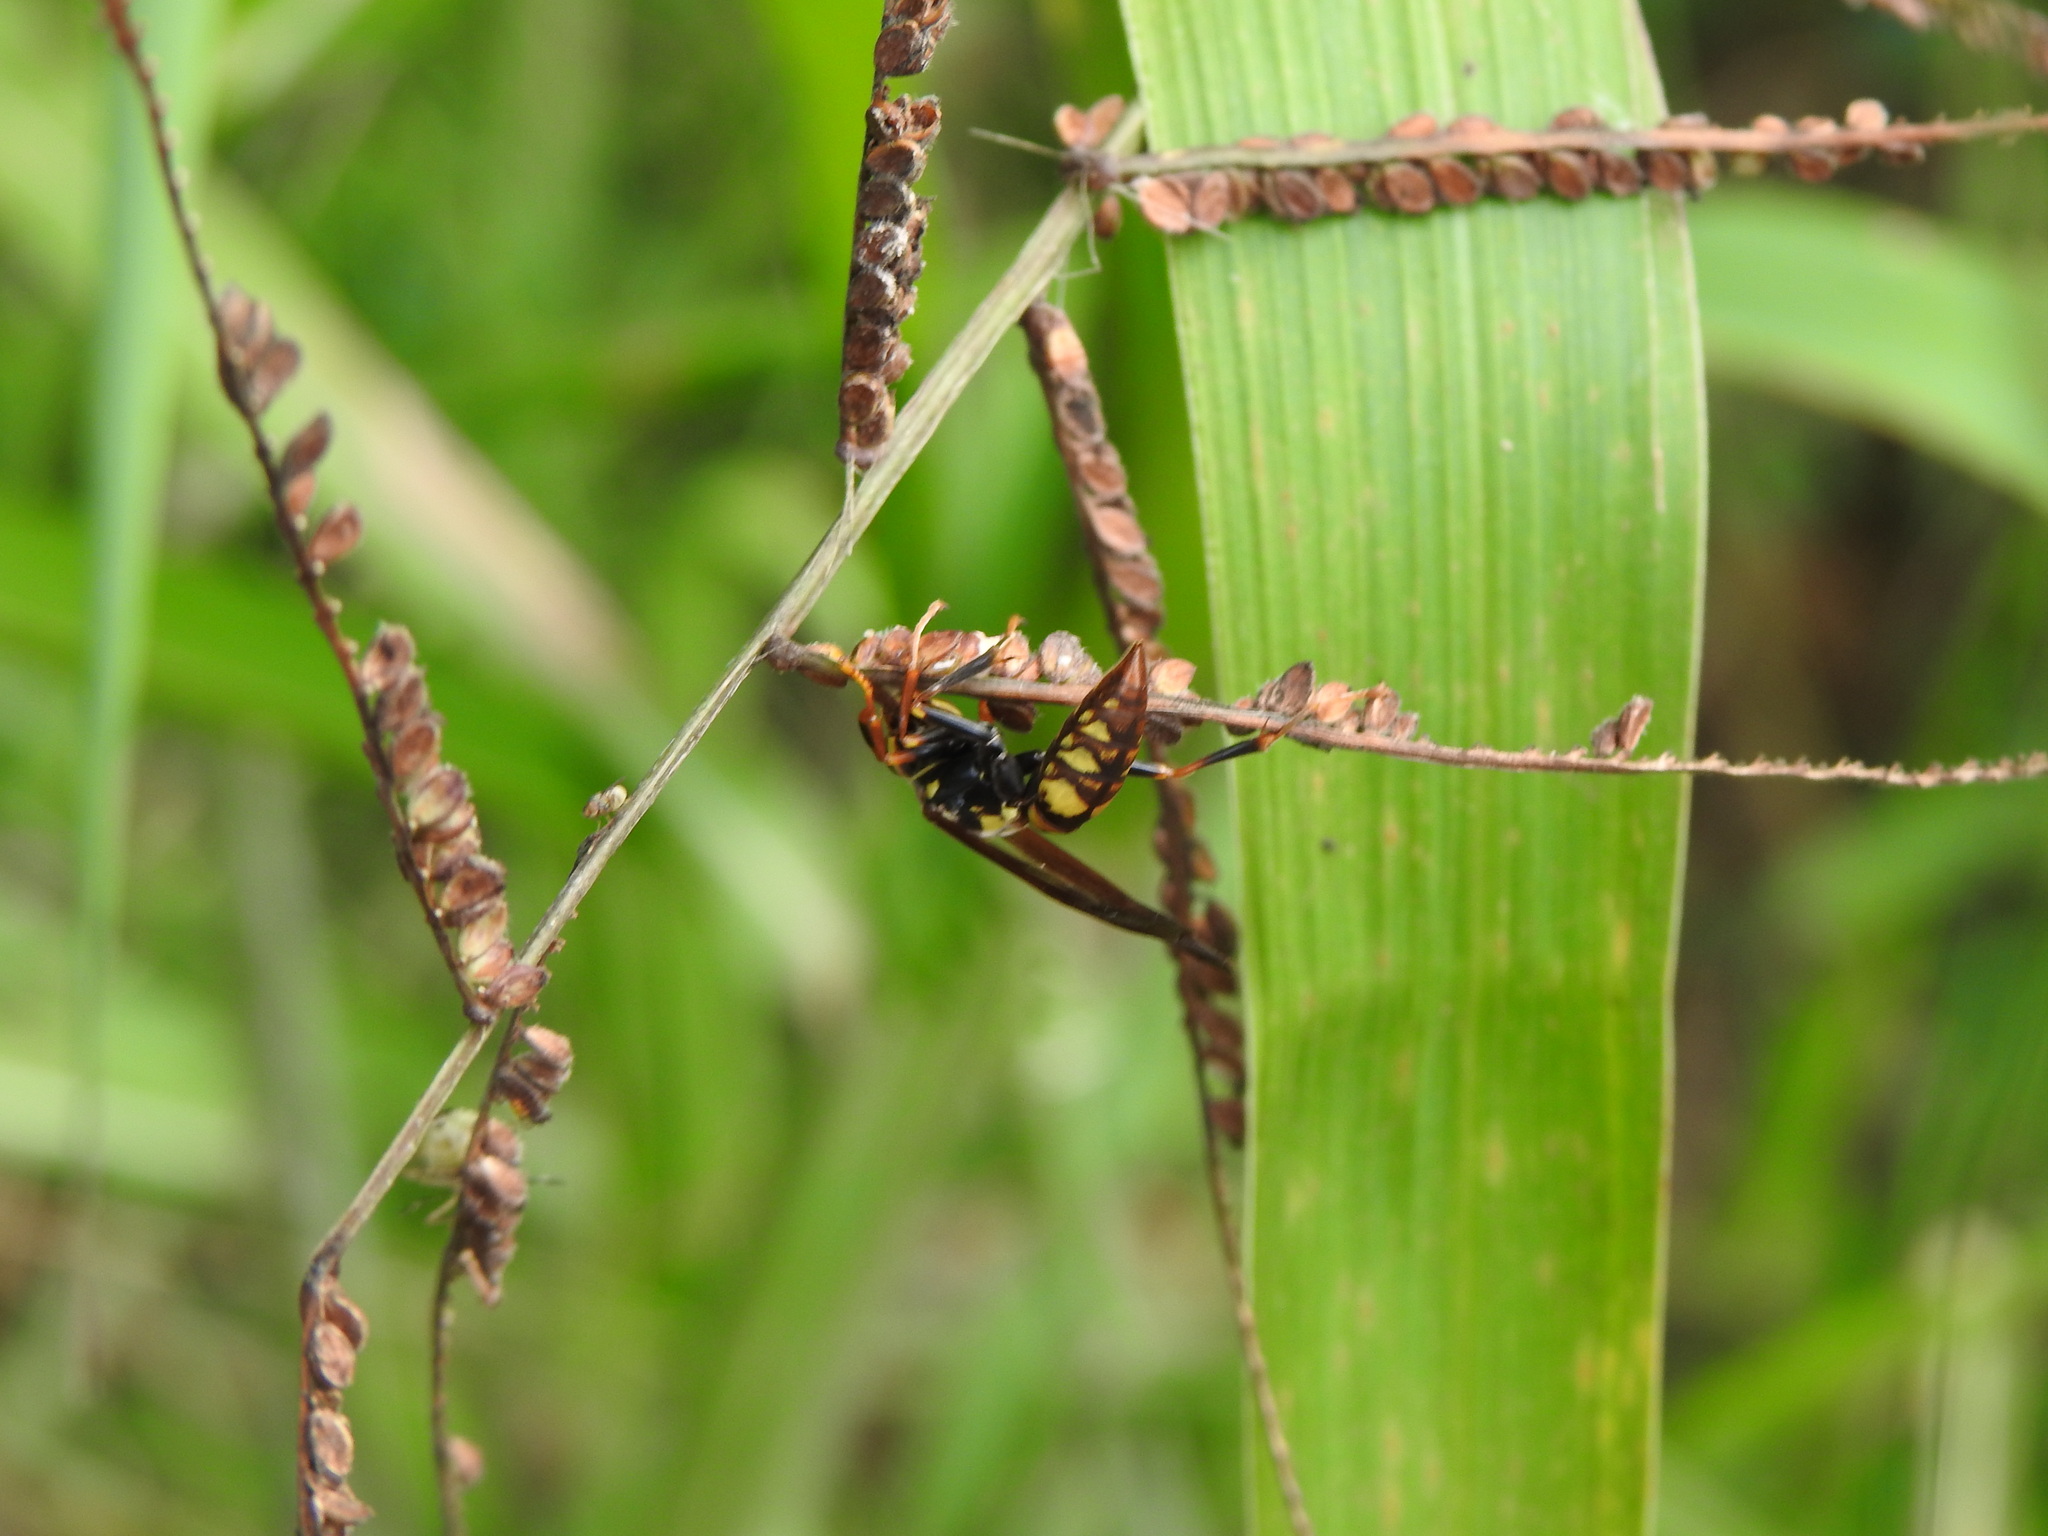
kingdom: Animalia
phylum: Arthropoda
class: Insecta
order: Hymenoptera
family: Eumenidae
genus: Polistes
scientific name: Polistes versicolor
